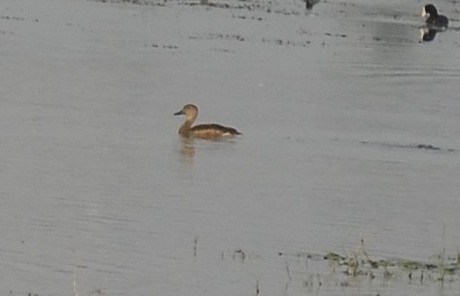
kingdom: Animalia
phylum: Chordata
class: Aves
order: Anseriformes
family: Anatidae
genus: Dendrocygna
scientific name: Dendrocygna javanica
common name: Lesser whistling-duck
